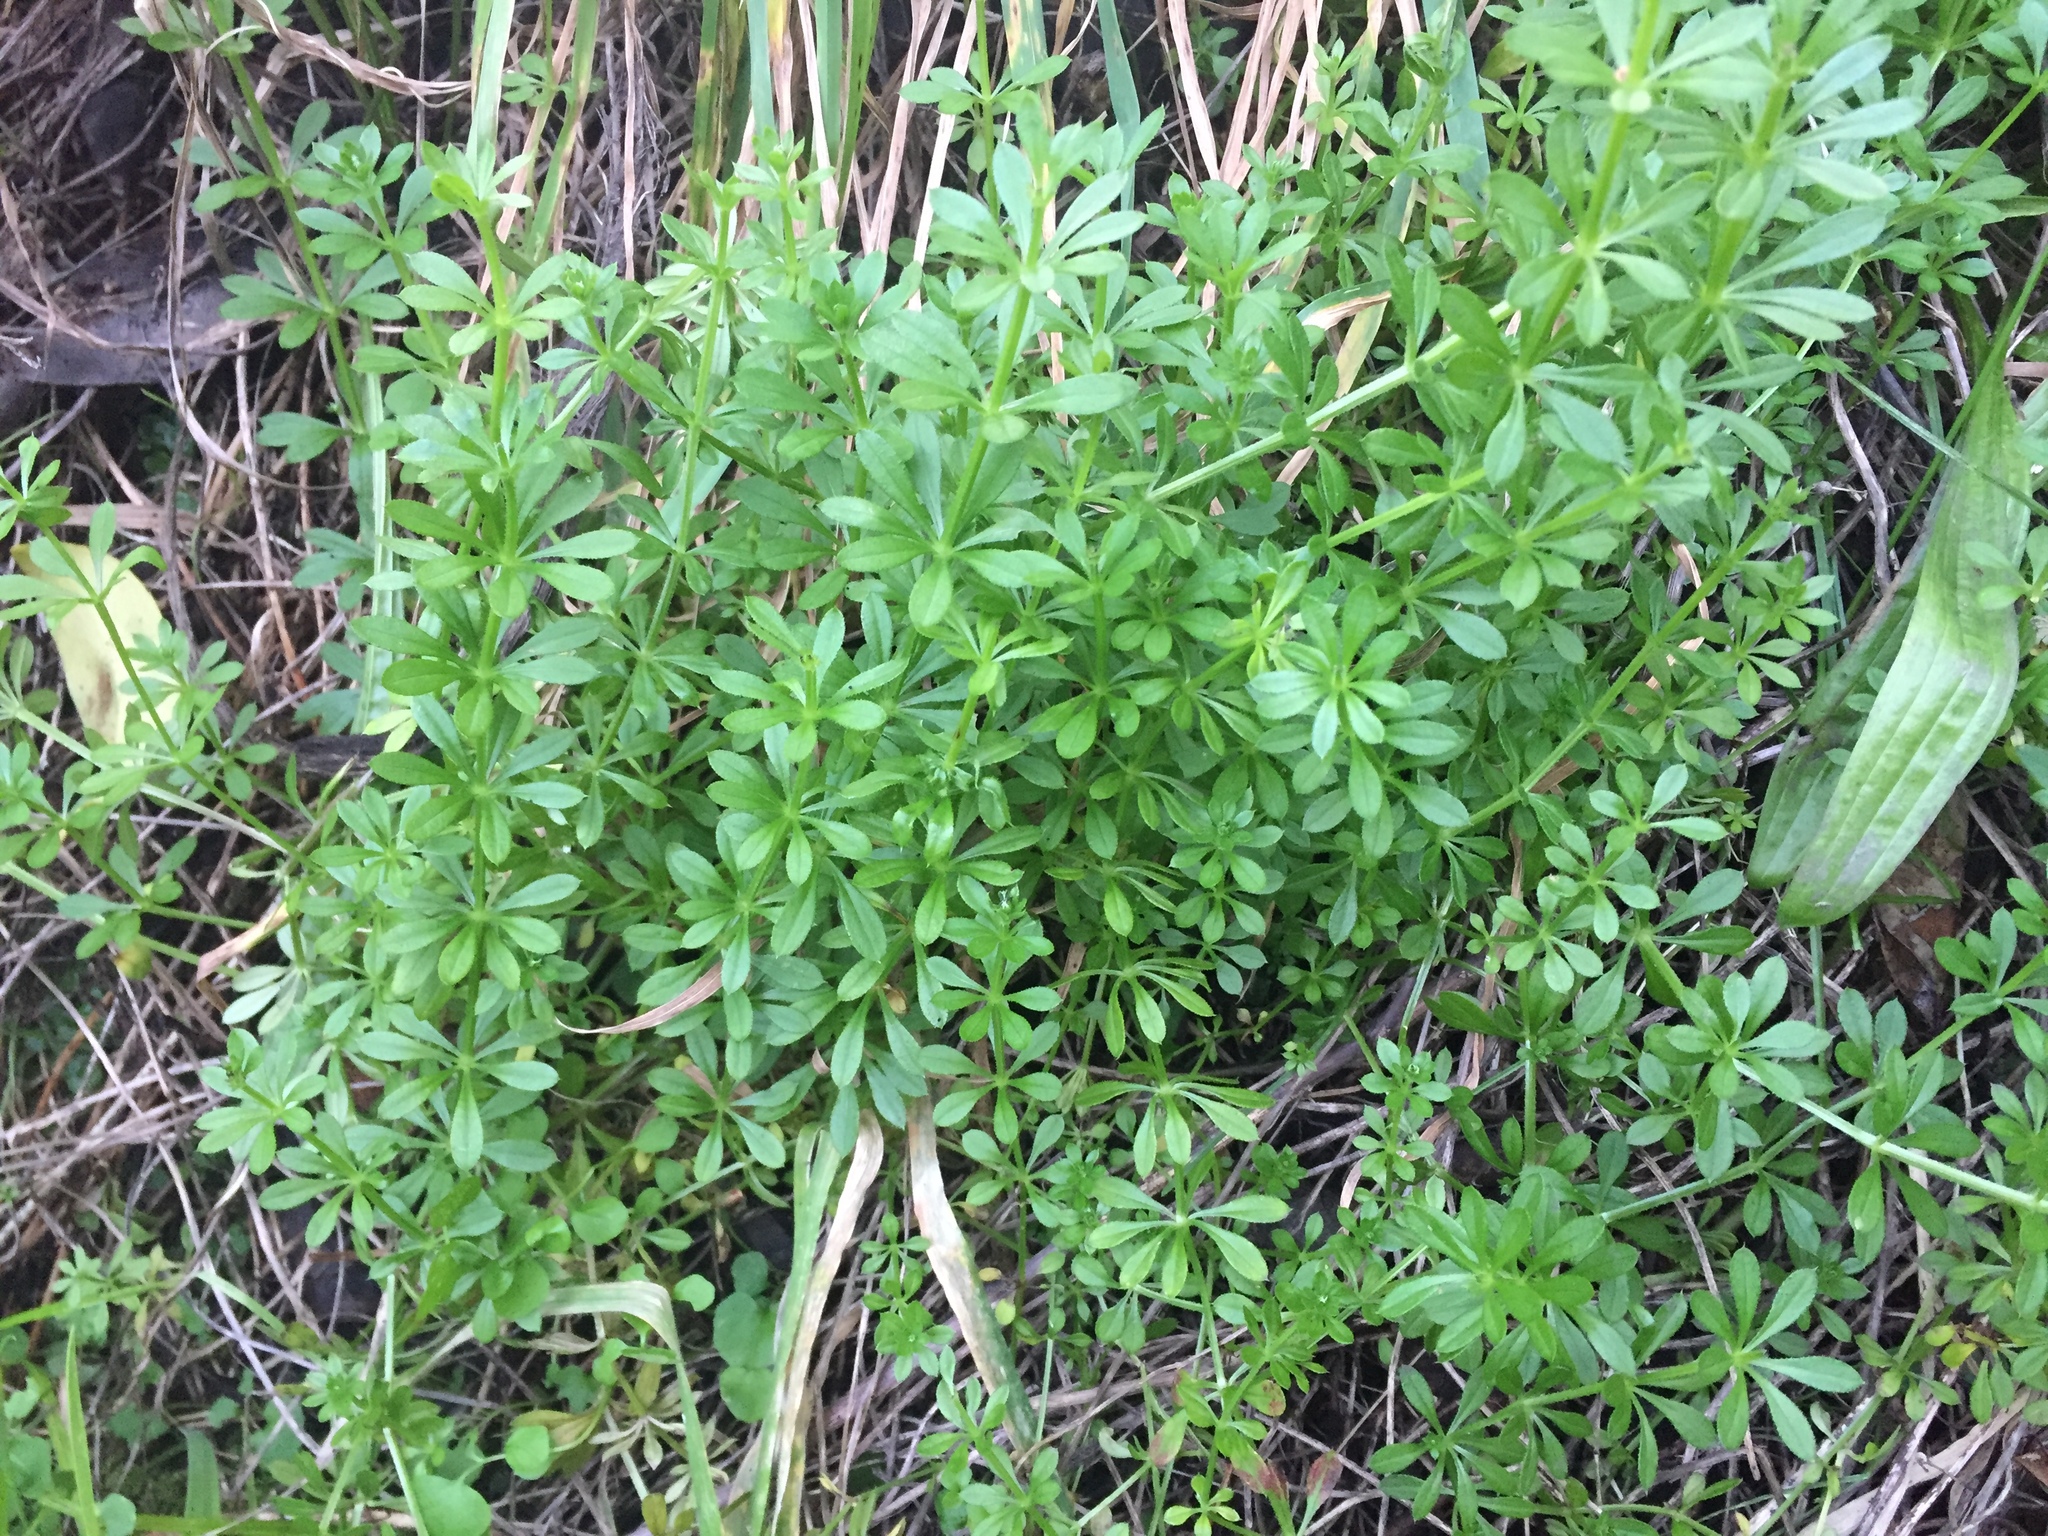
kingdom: Plantae
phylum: Tracheophyta
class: Magnoliopsida
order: Gentianales
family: Rubiaceae
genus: Galium
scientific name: Galium aparine
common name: Cleavers
